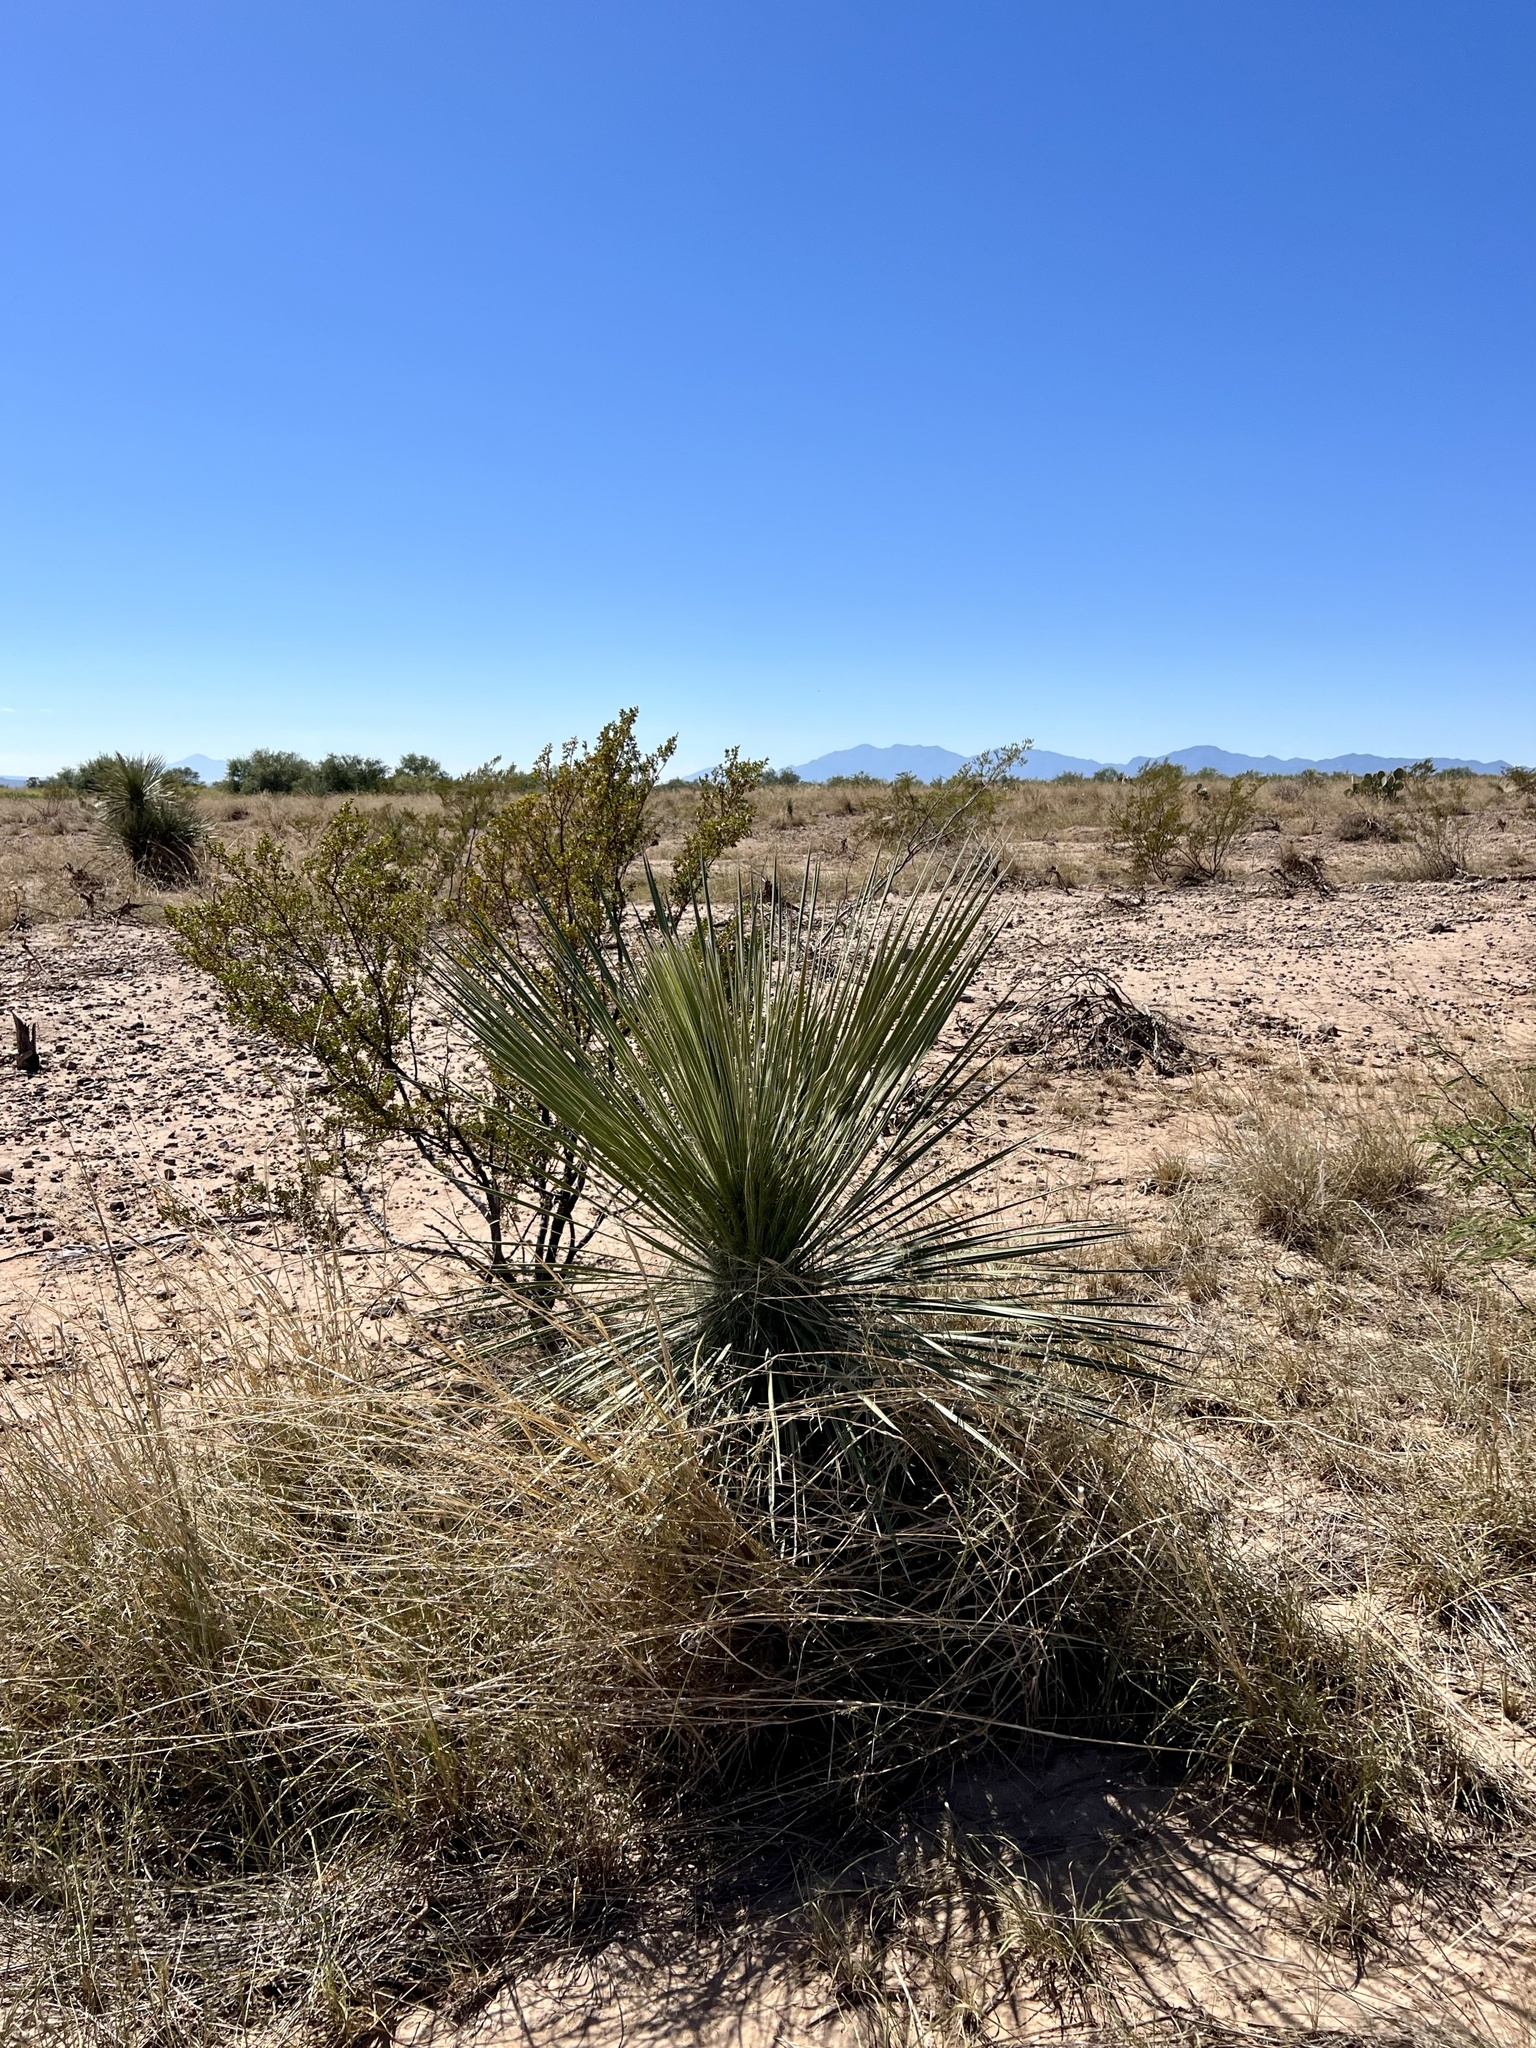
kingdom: Plantae
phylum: Tracheophyta
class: Liliopsida
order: Asparagales
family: Asparagaceae
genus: Yucca
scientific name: Yucca elata
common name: Palmella
